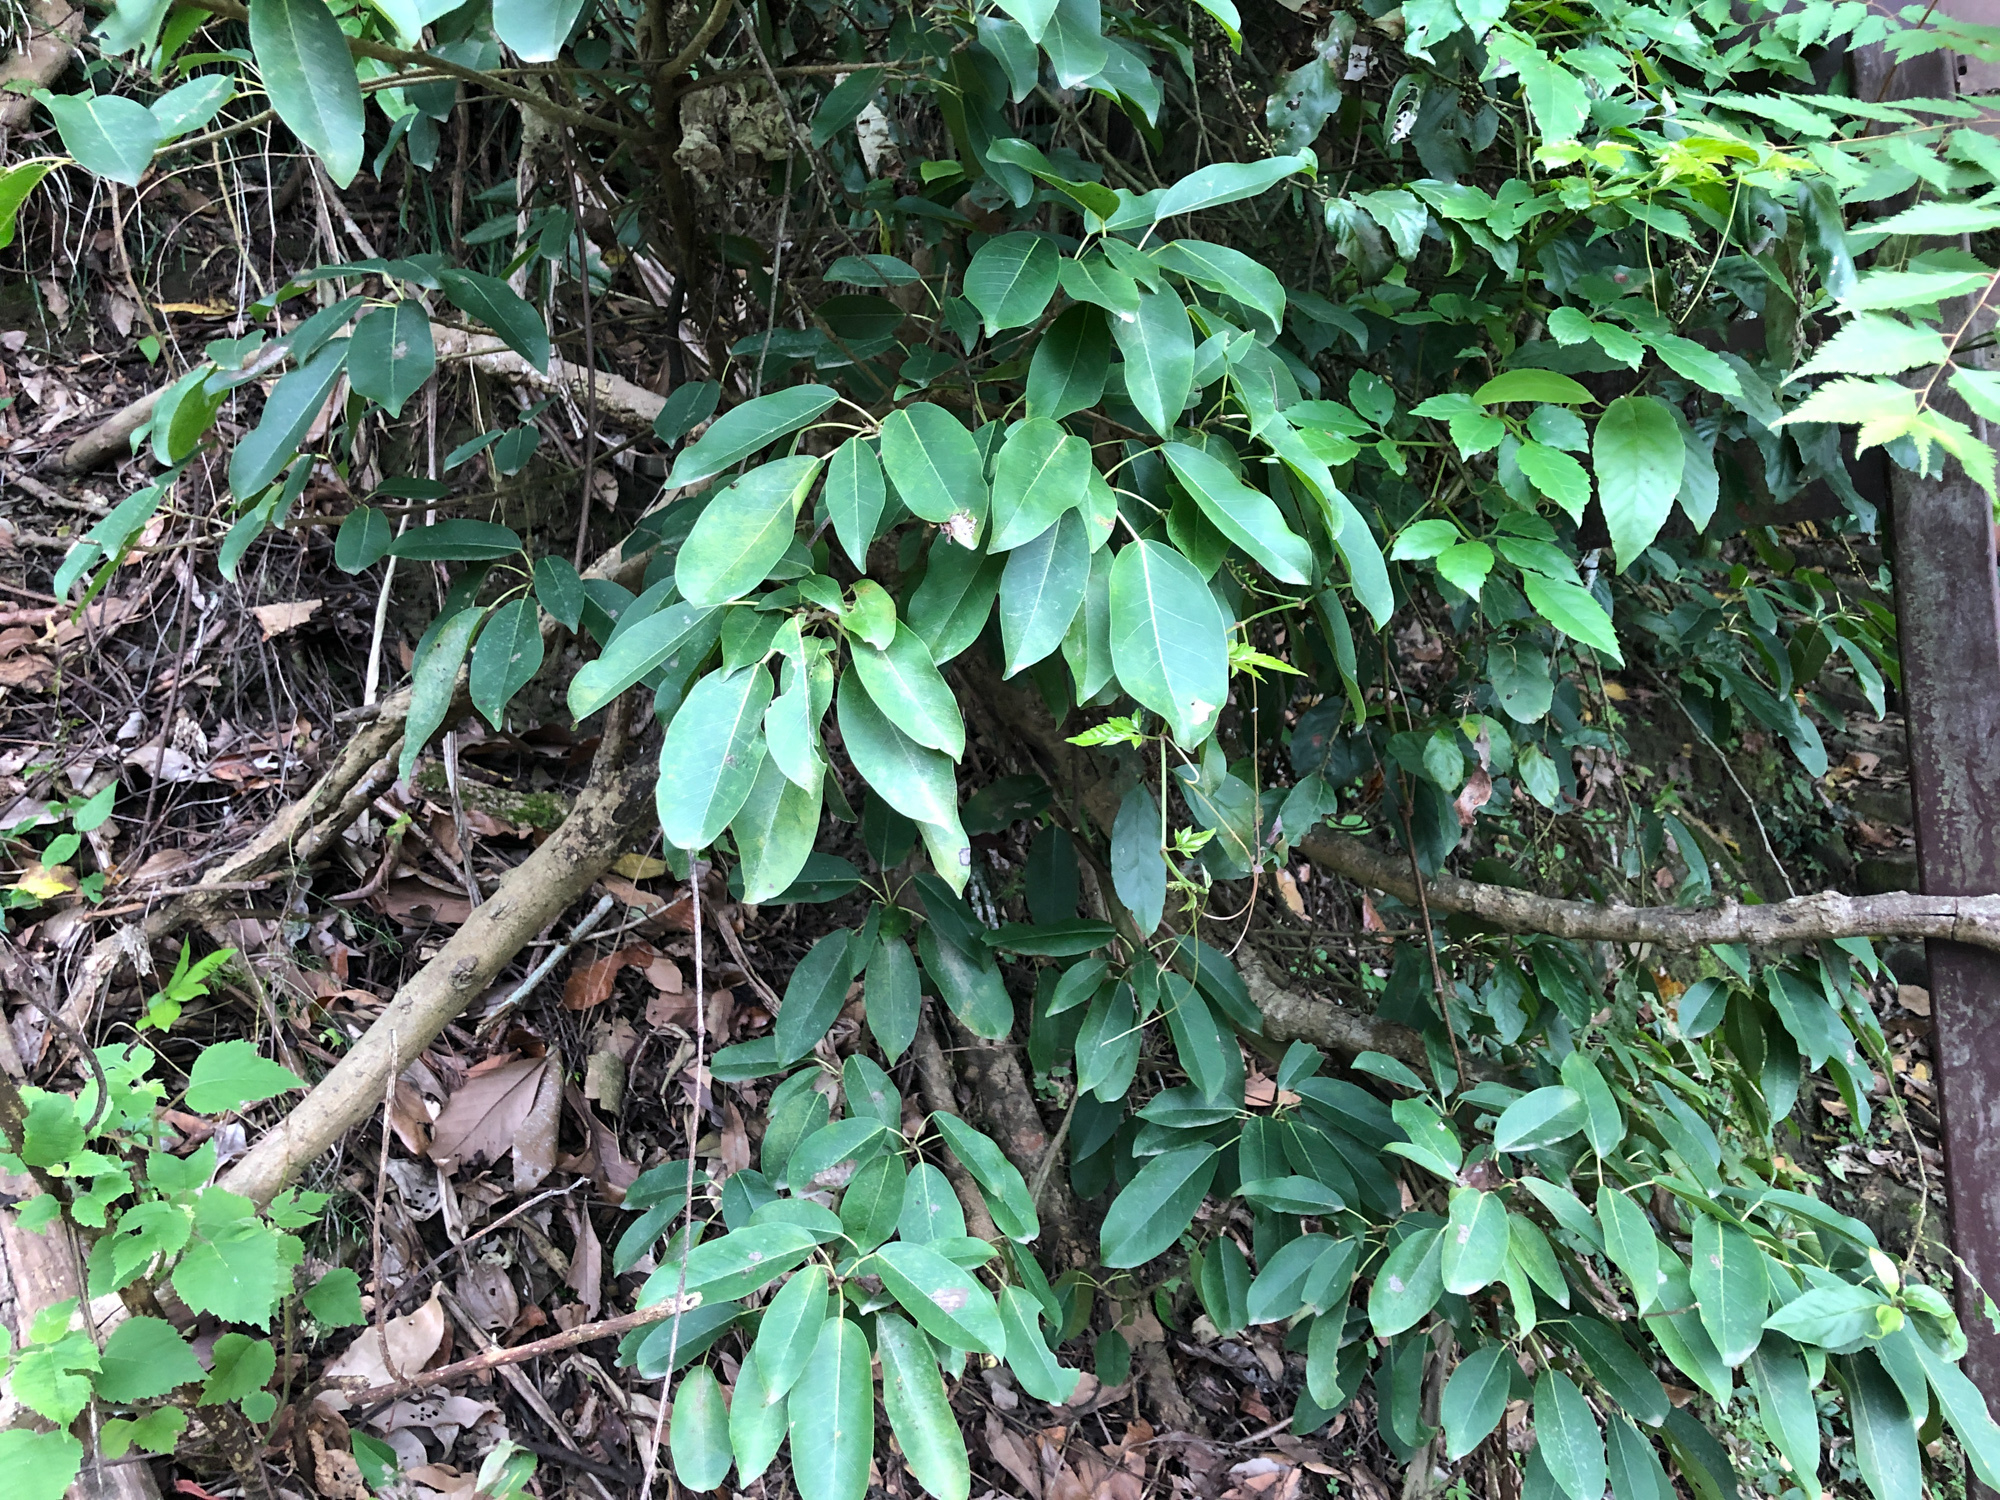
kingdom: Plantae
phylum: Tracheophyta
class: Magnoliopsida
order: Rosales
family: Moraceae
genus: Ficus
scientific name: Ficus subpisocarpa
